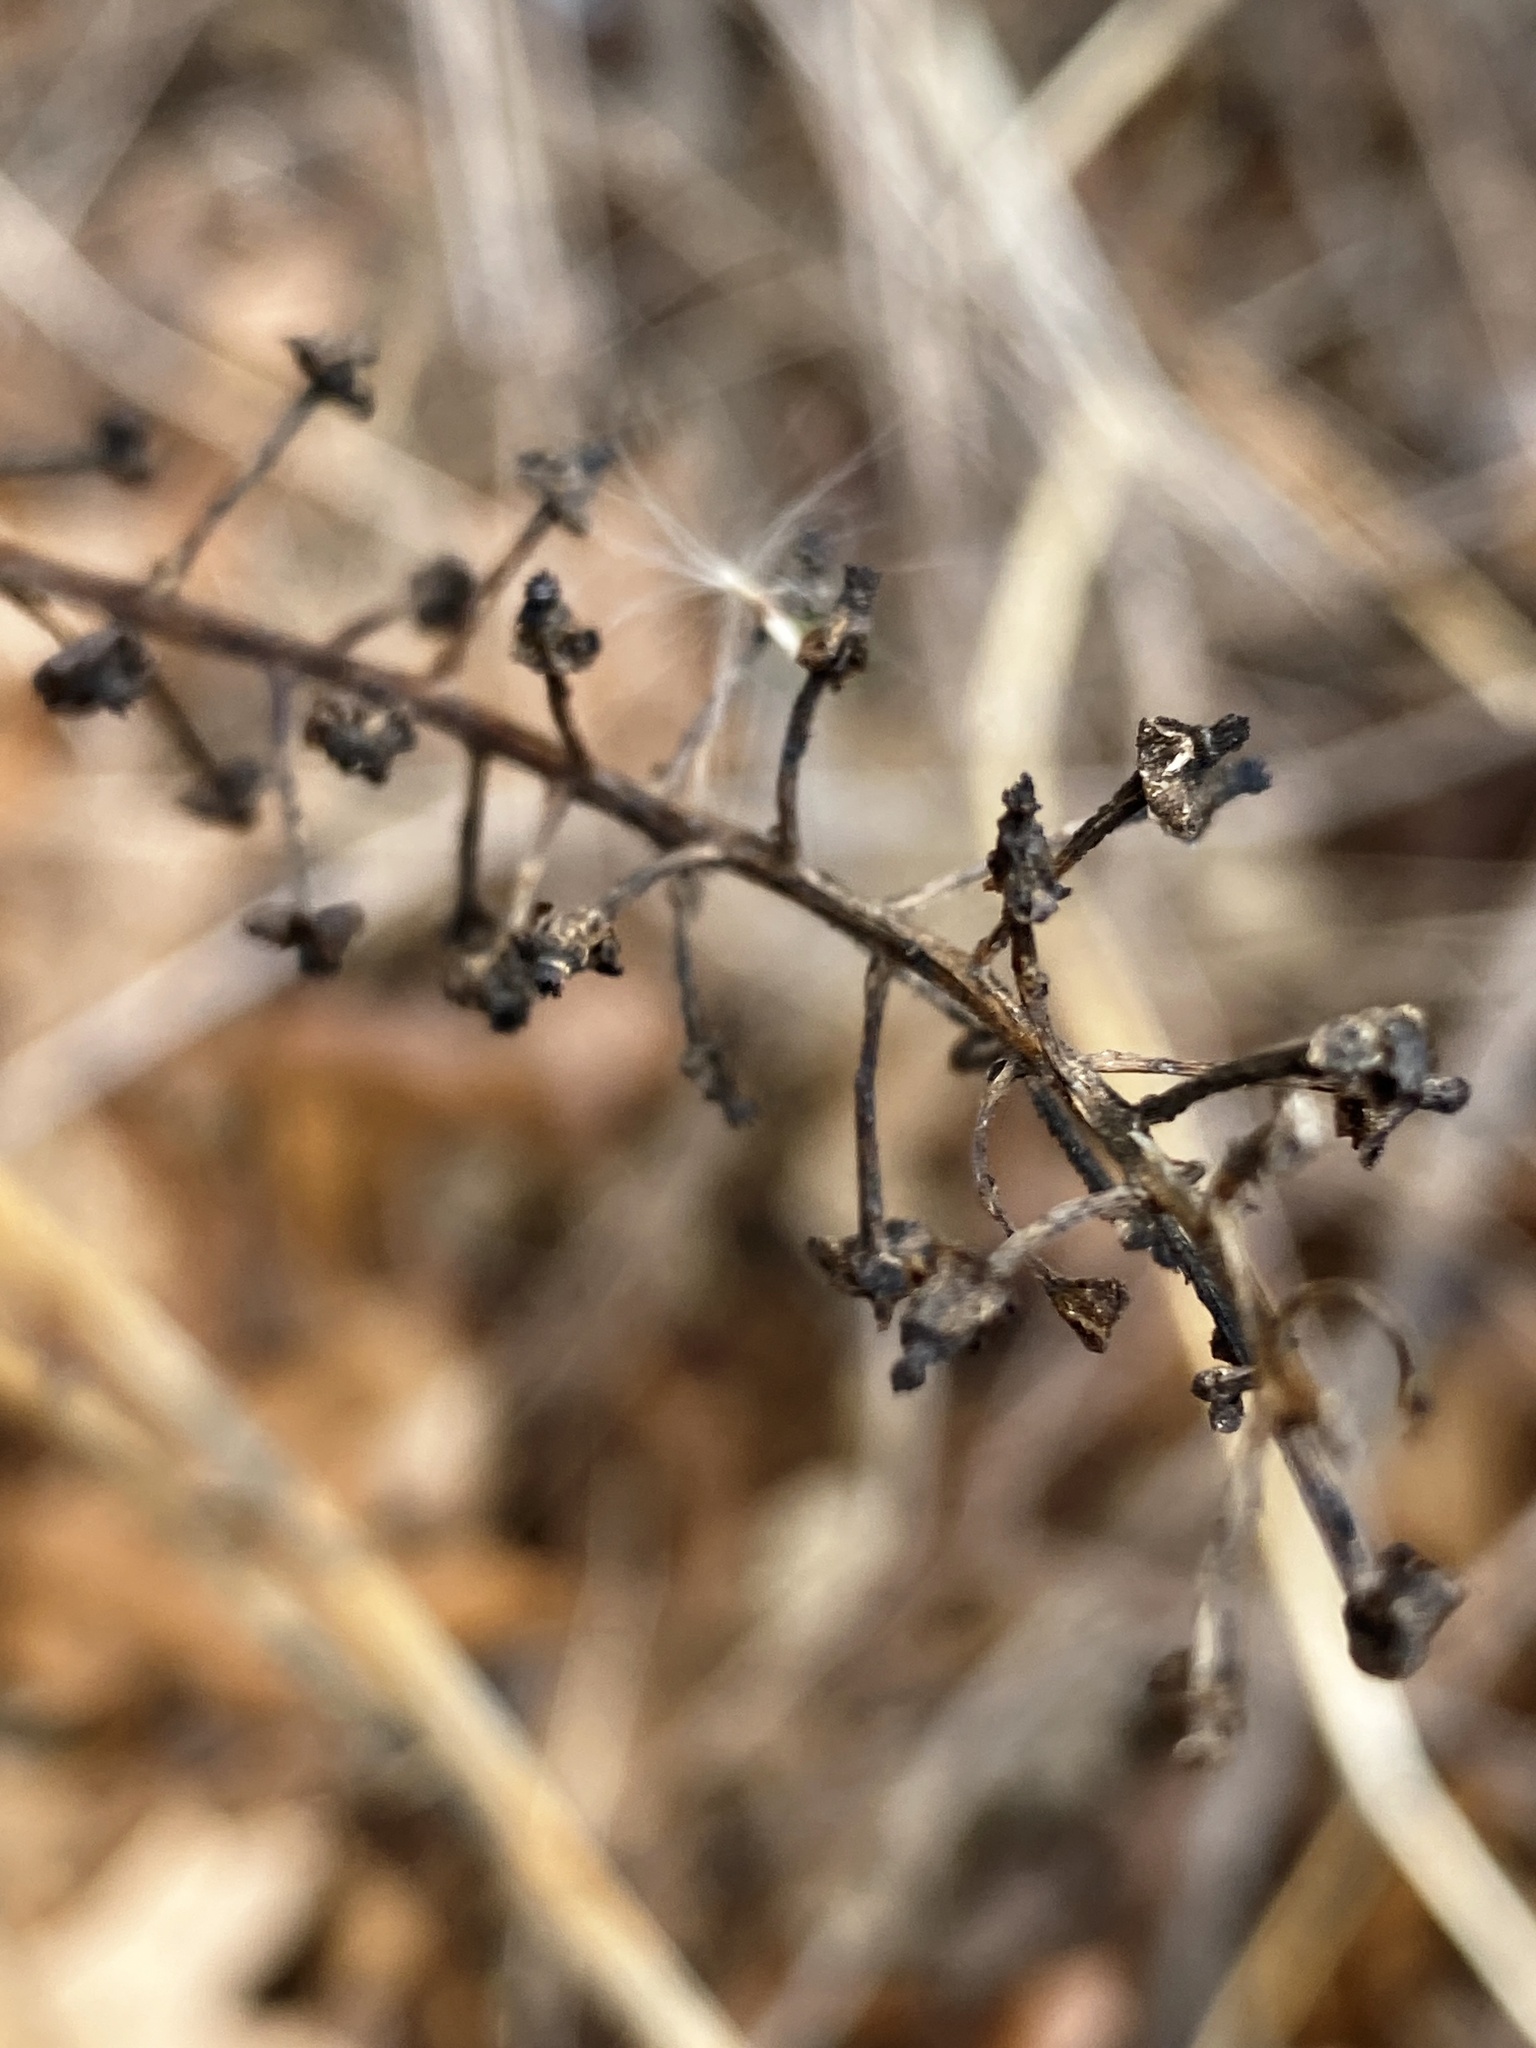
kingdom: Plantae
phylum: Tracheophyta
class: Magnoliopsida
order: Caryophyllales
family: Phytolaccaceae
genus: Phytolacca
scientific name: Phytolacca americana
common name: American pokeweed
